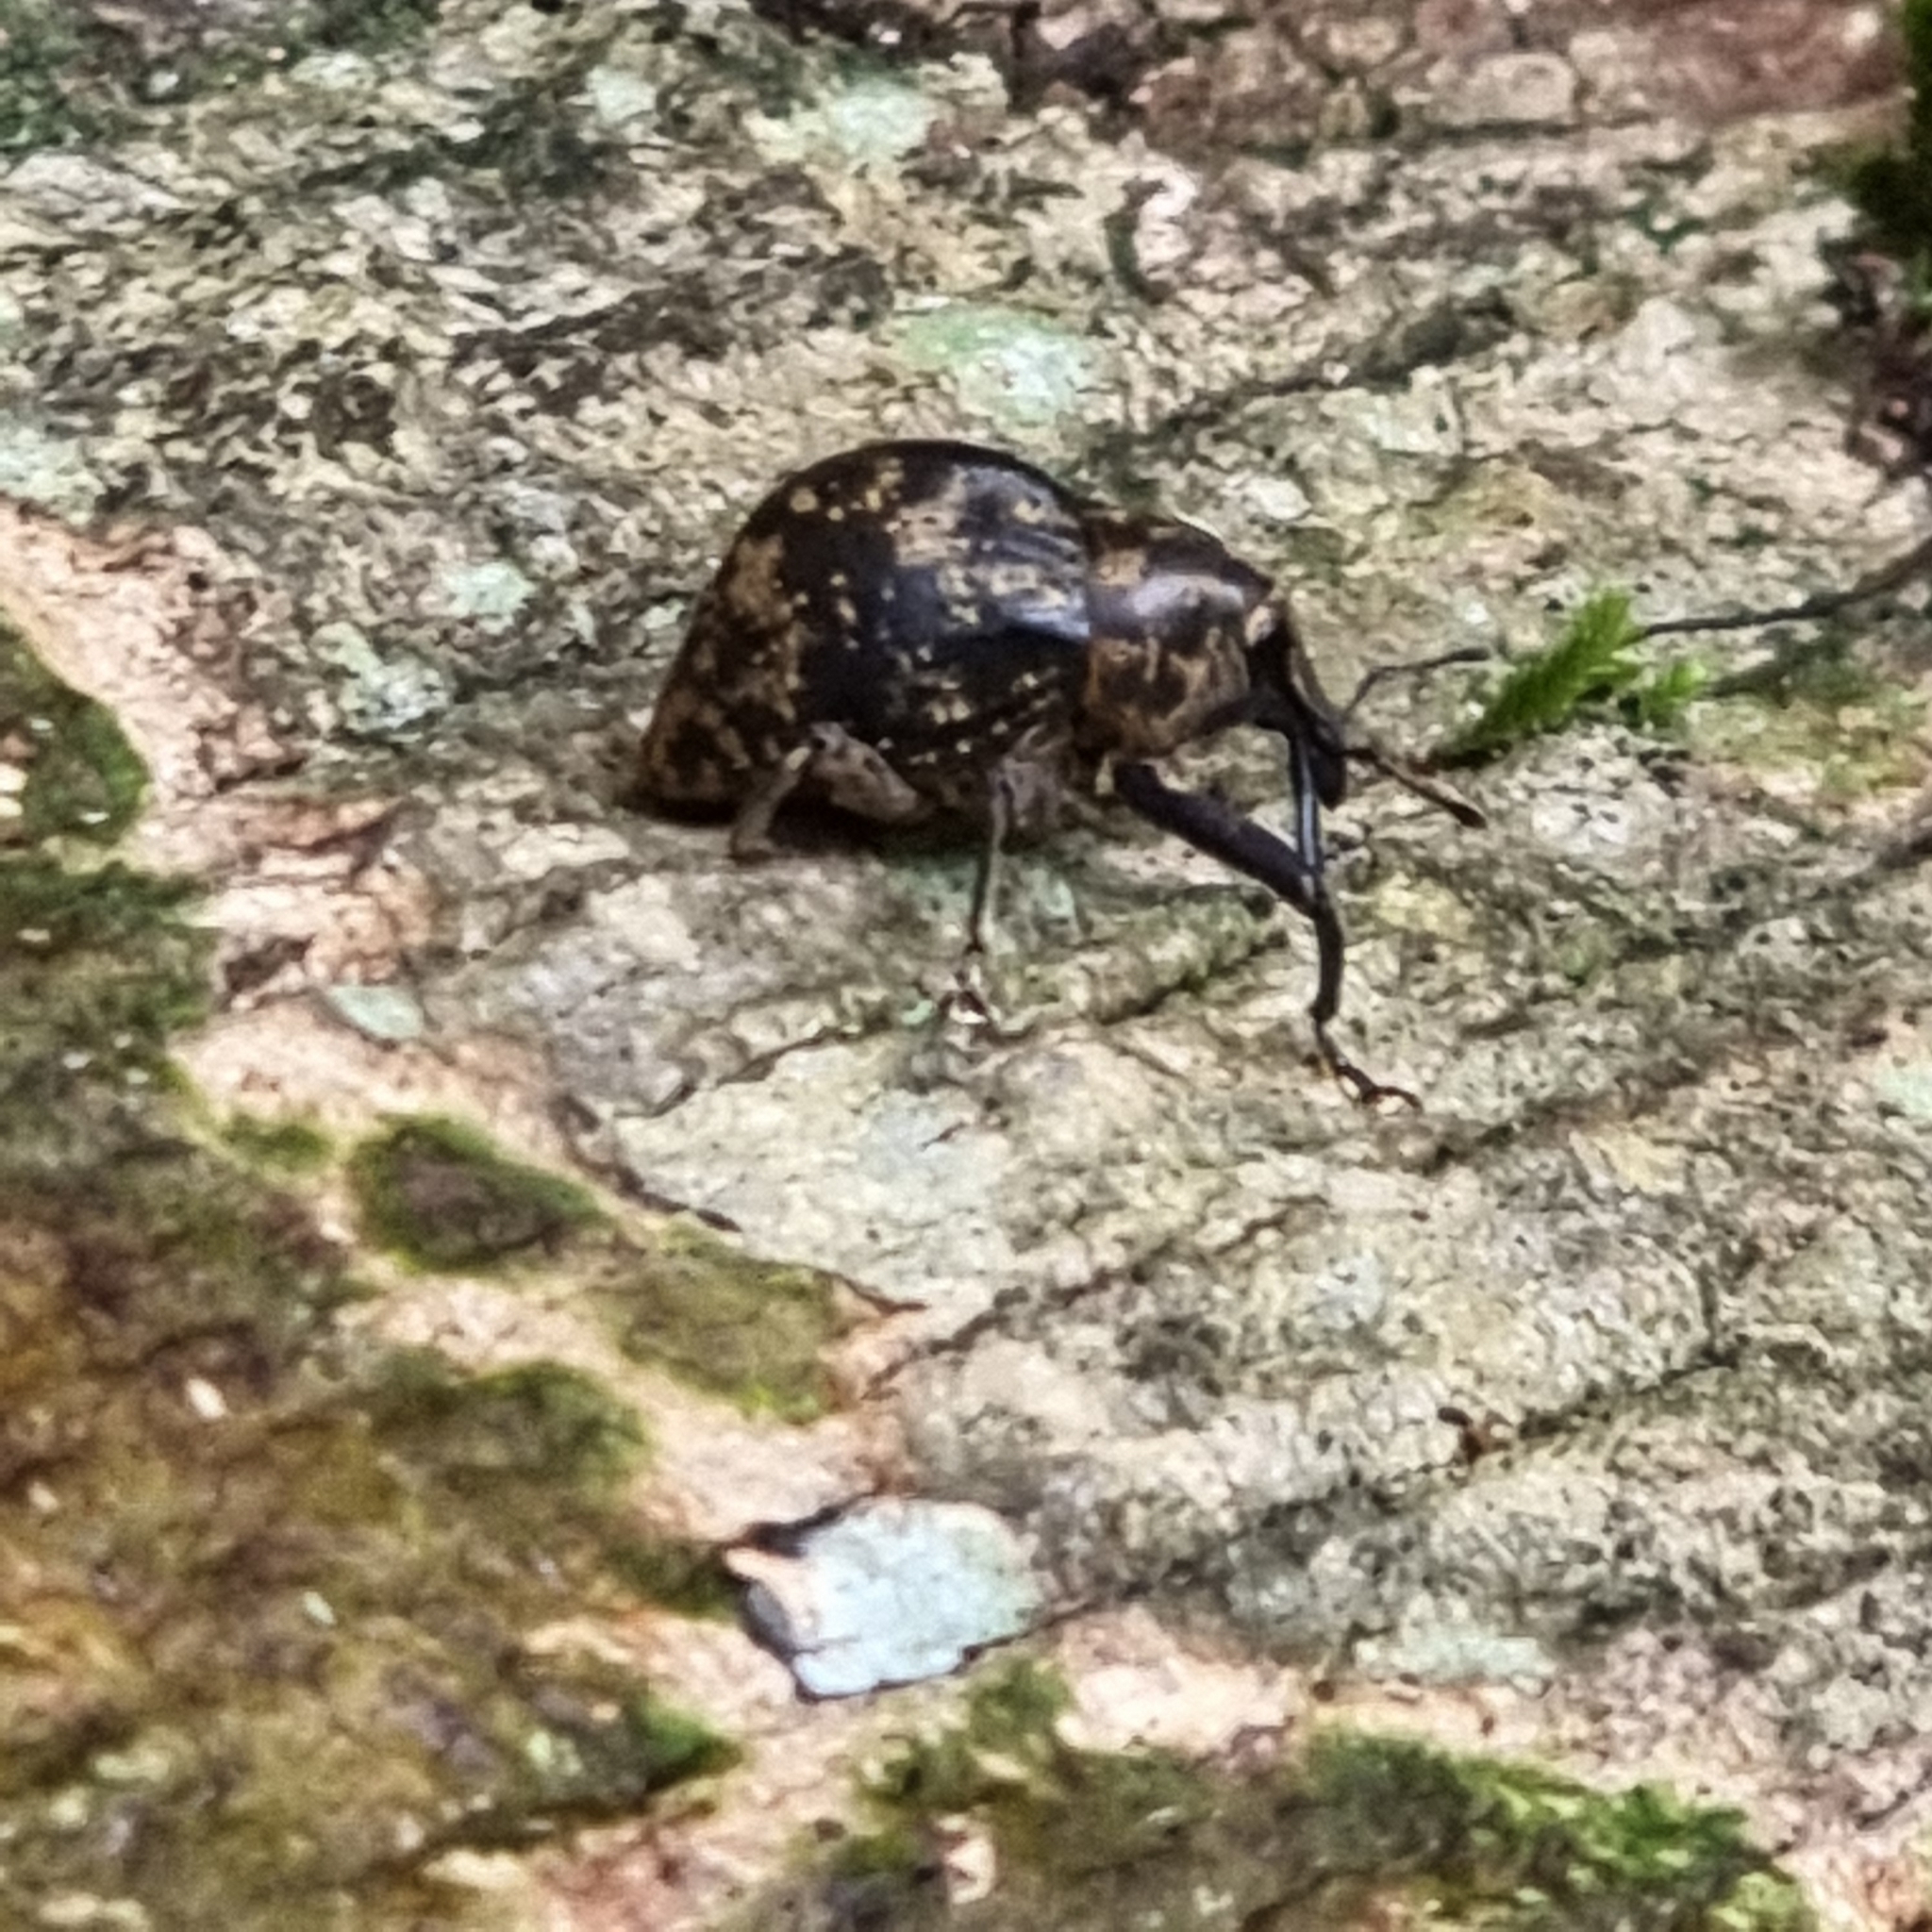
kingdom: Animalia
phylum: Arthropoda
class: Insecta
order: Coleoptera
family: Curculionidae
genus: Perissops
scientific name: Perissops mucidus
